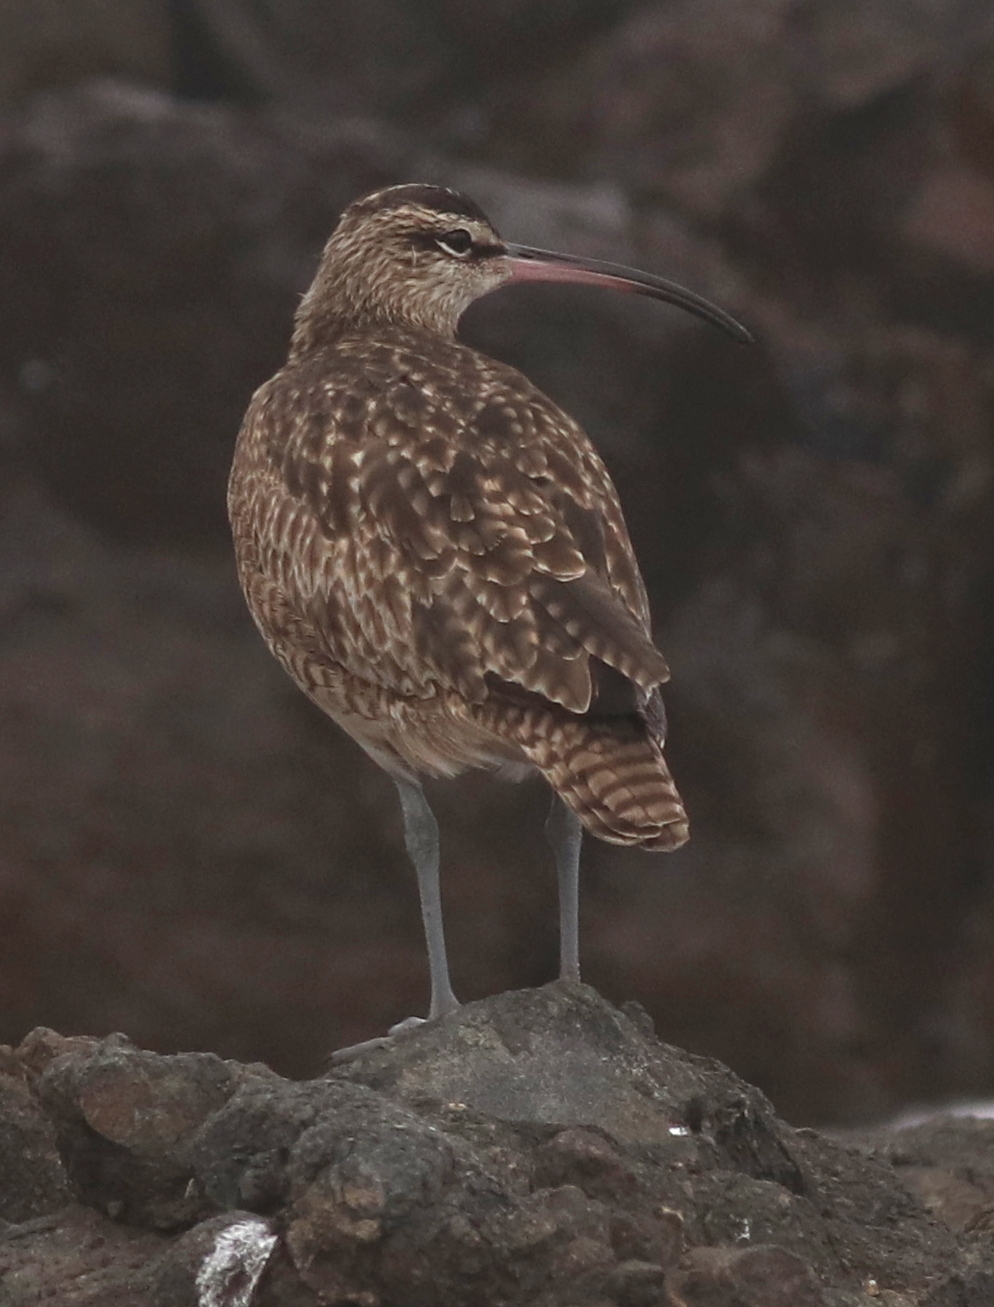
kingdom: Animalia
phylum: Chordata
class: Aves
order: Charadriiformes
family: Scolopacidae
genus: Numenius
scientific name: Numenius hudsonicus
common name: Hudsonian whimbrel
